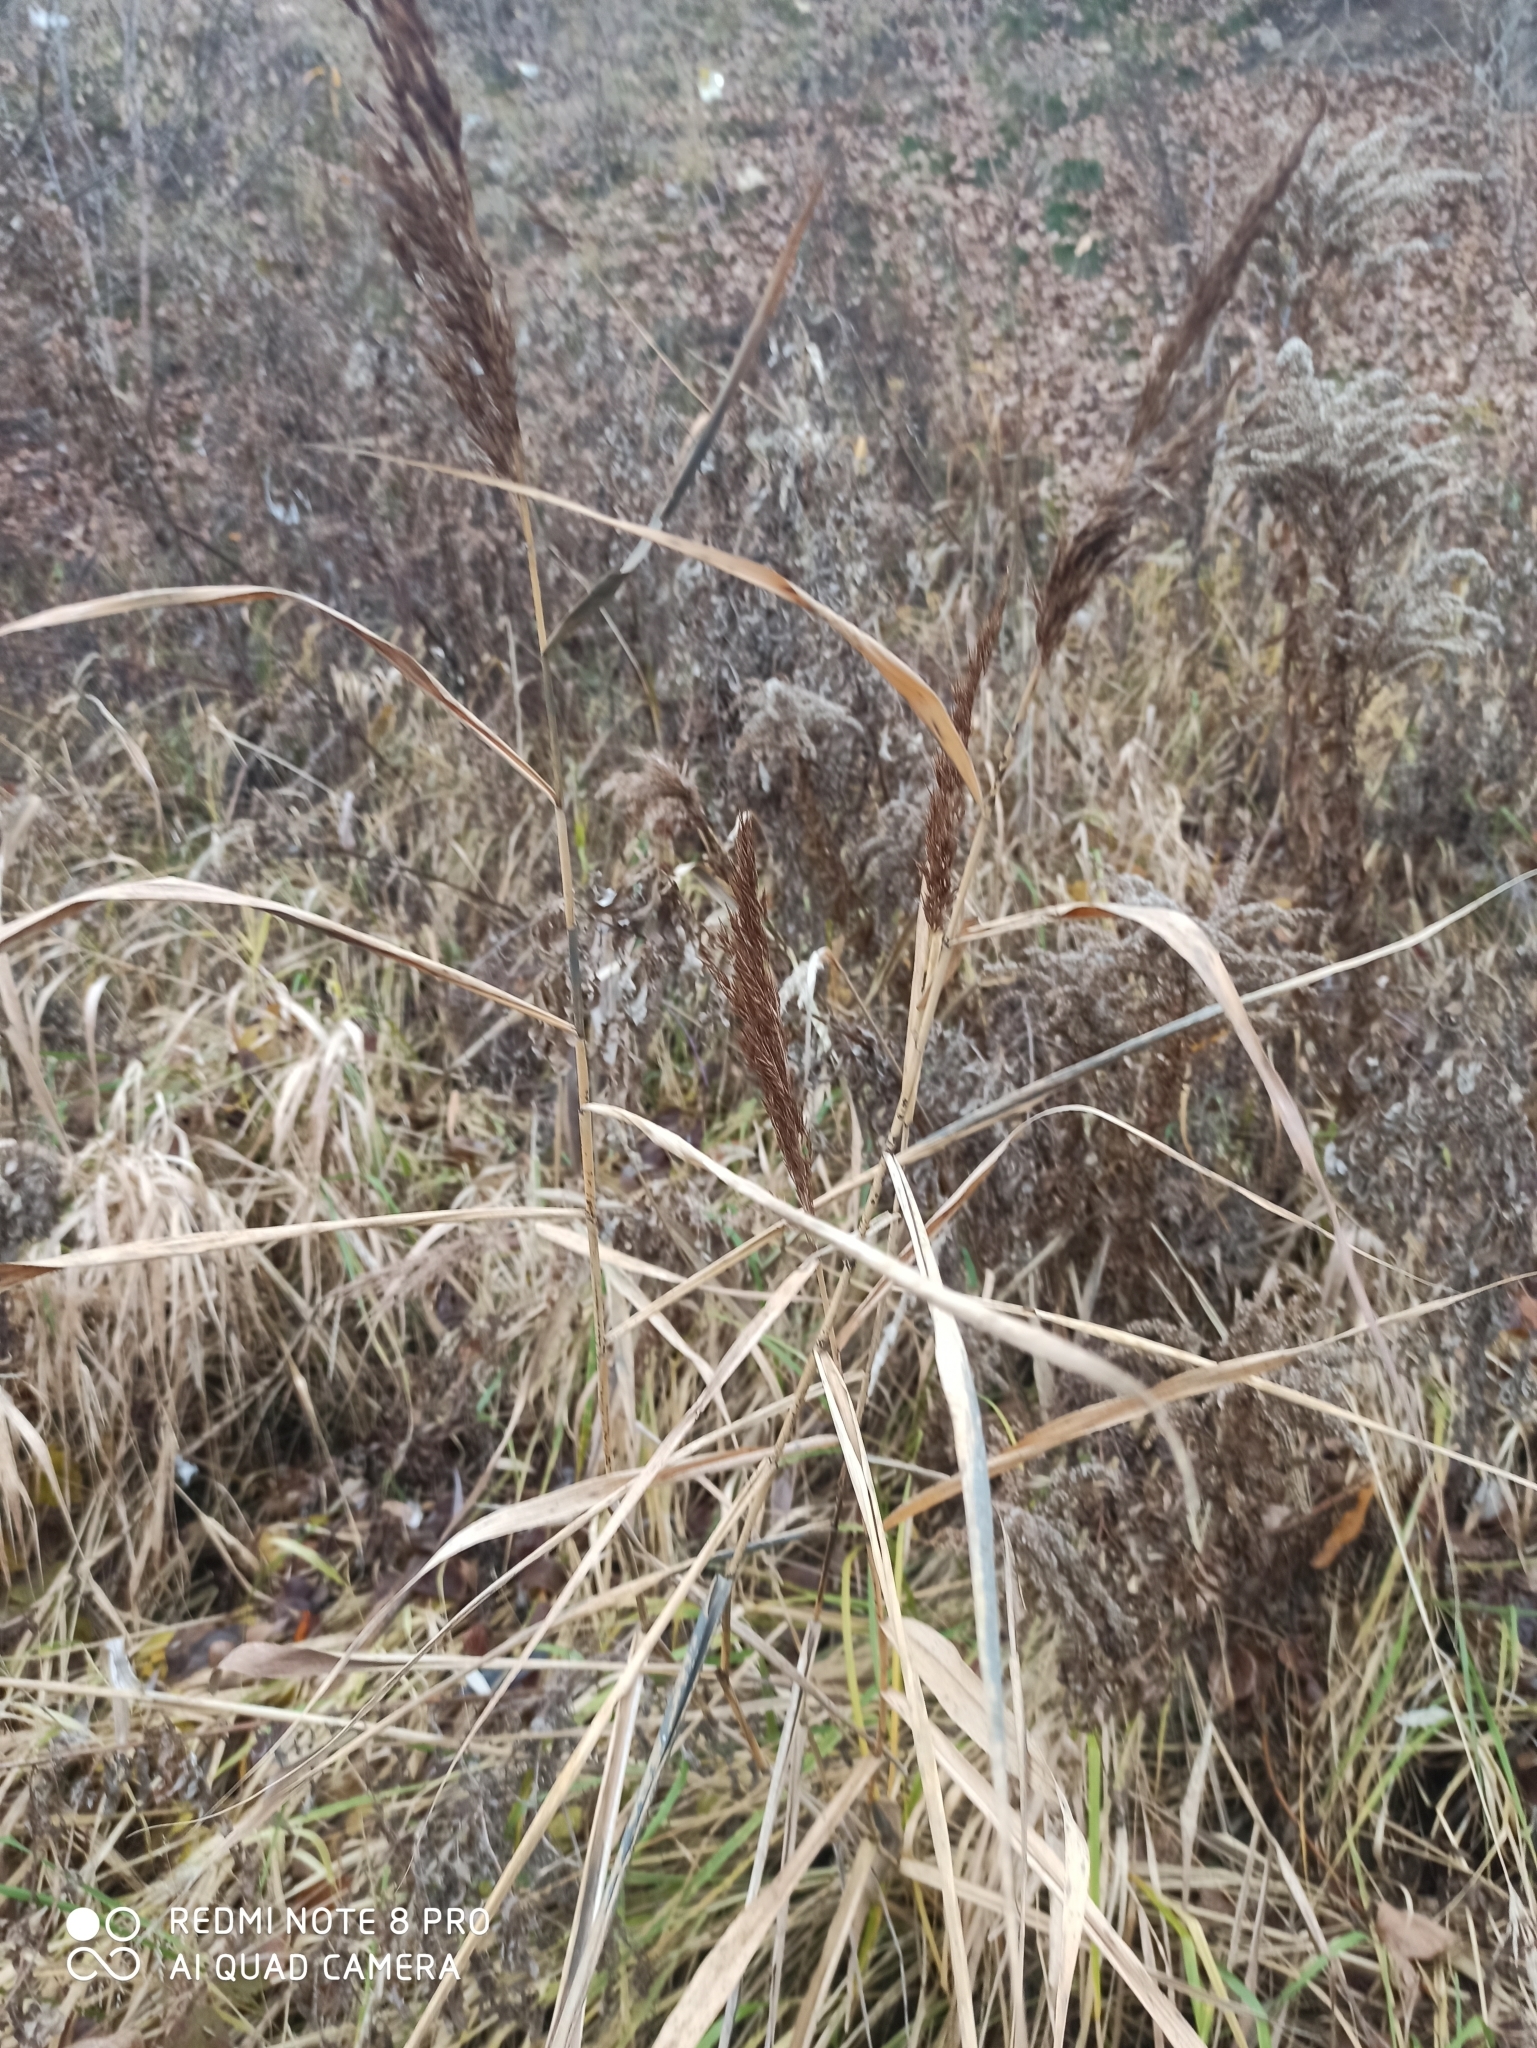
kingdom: Plantae
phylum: Tracheophyta
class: Liliopsida
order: Poales
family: Poaceae
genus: Phragmites
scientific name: Phragmites australis
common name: Common reed
